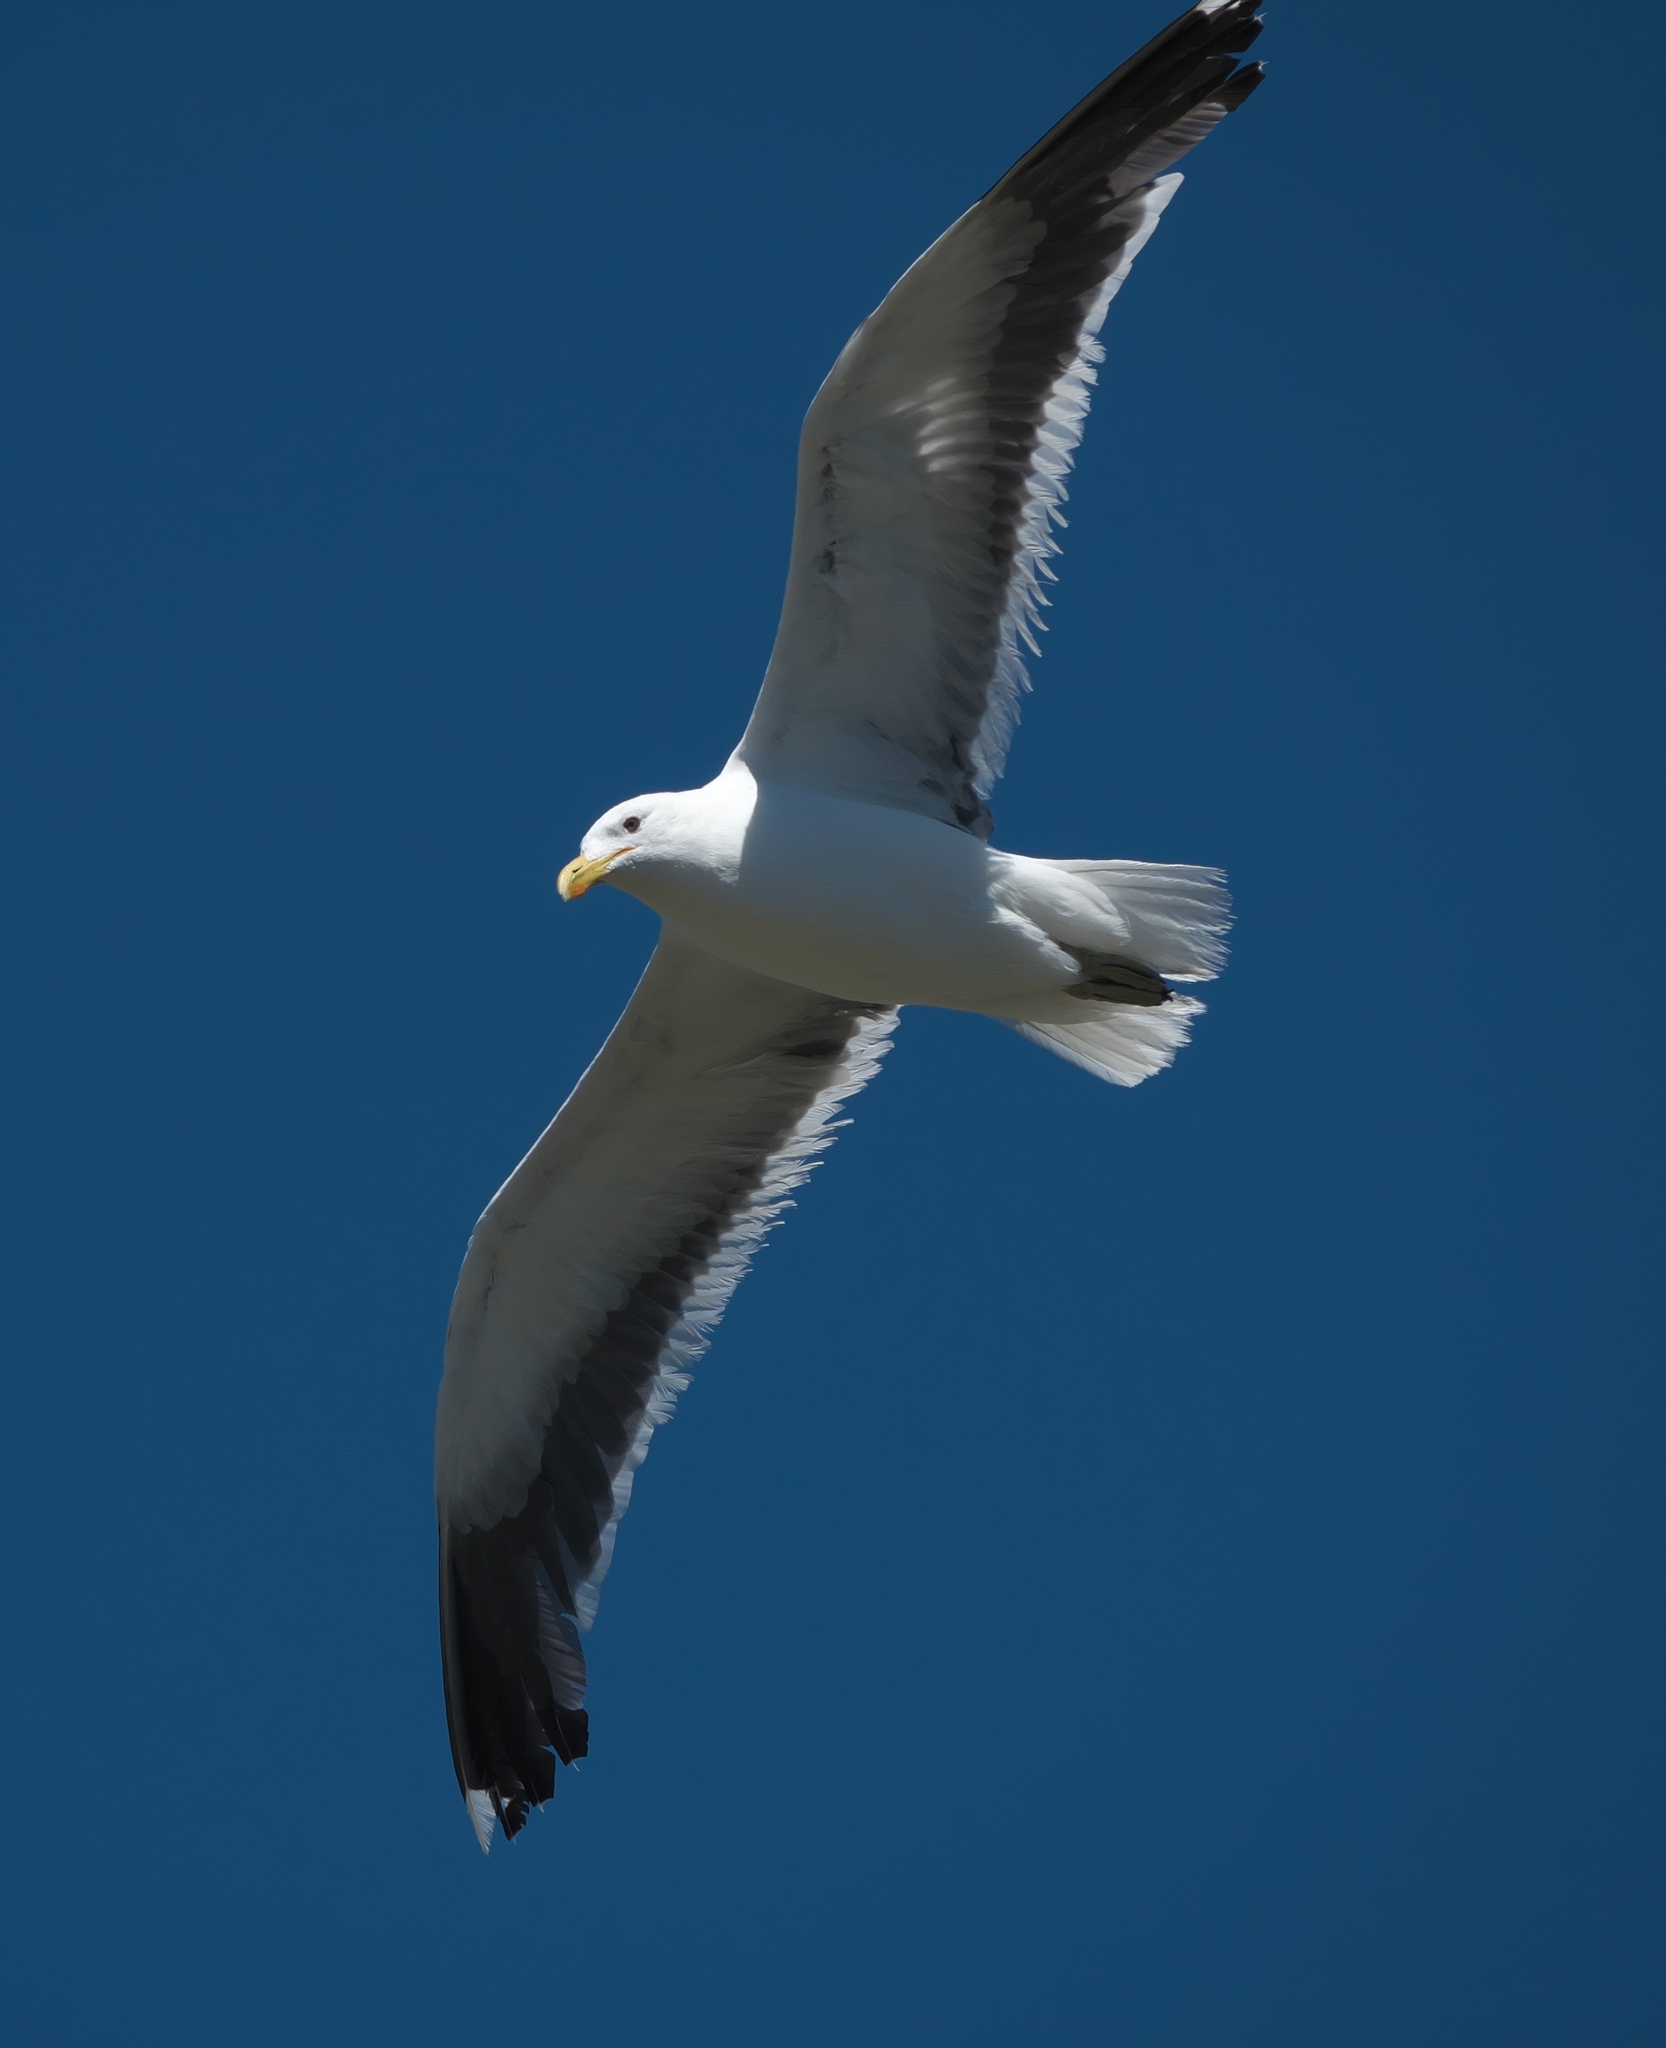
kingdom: Animalia
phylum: Chordata
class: Aves
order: Charadriiformes
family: Laridae
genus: Larus
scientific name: Larus dominicanus
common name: Kelp gull
